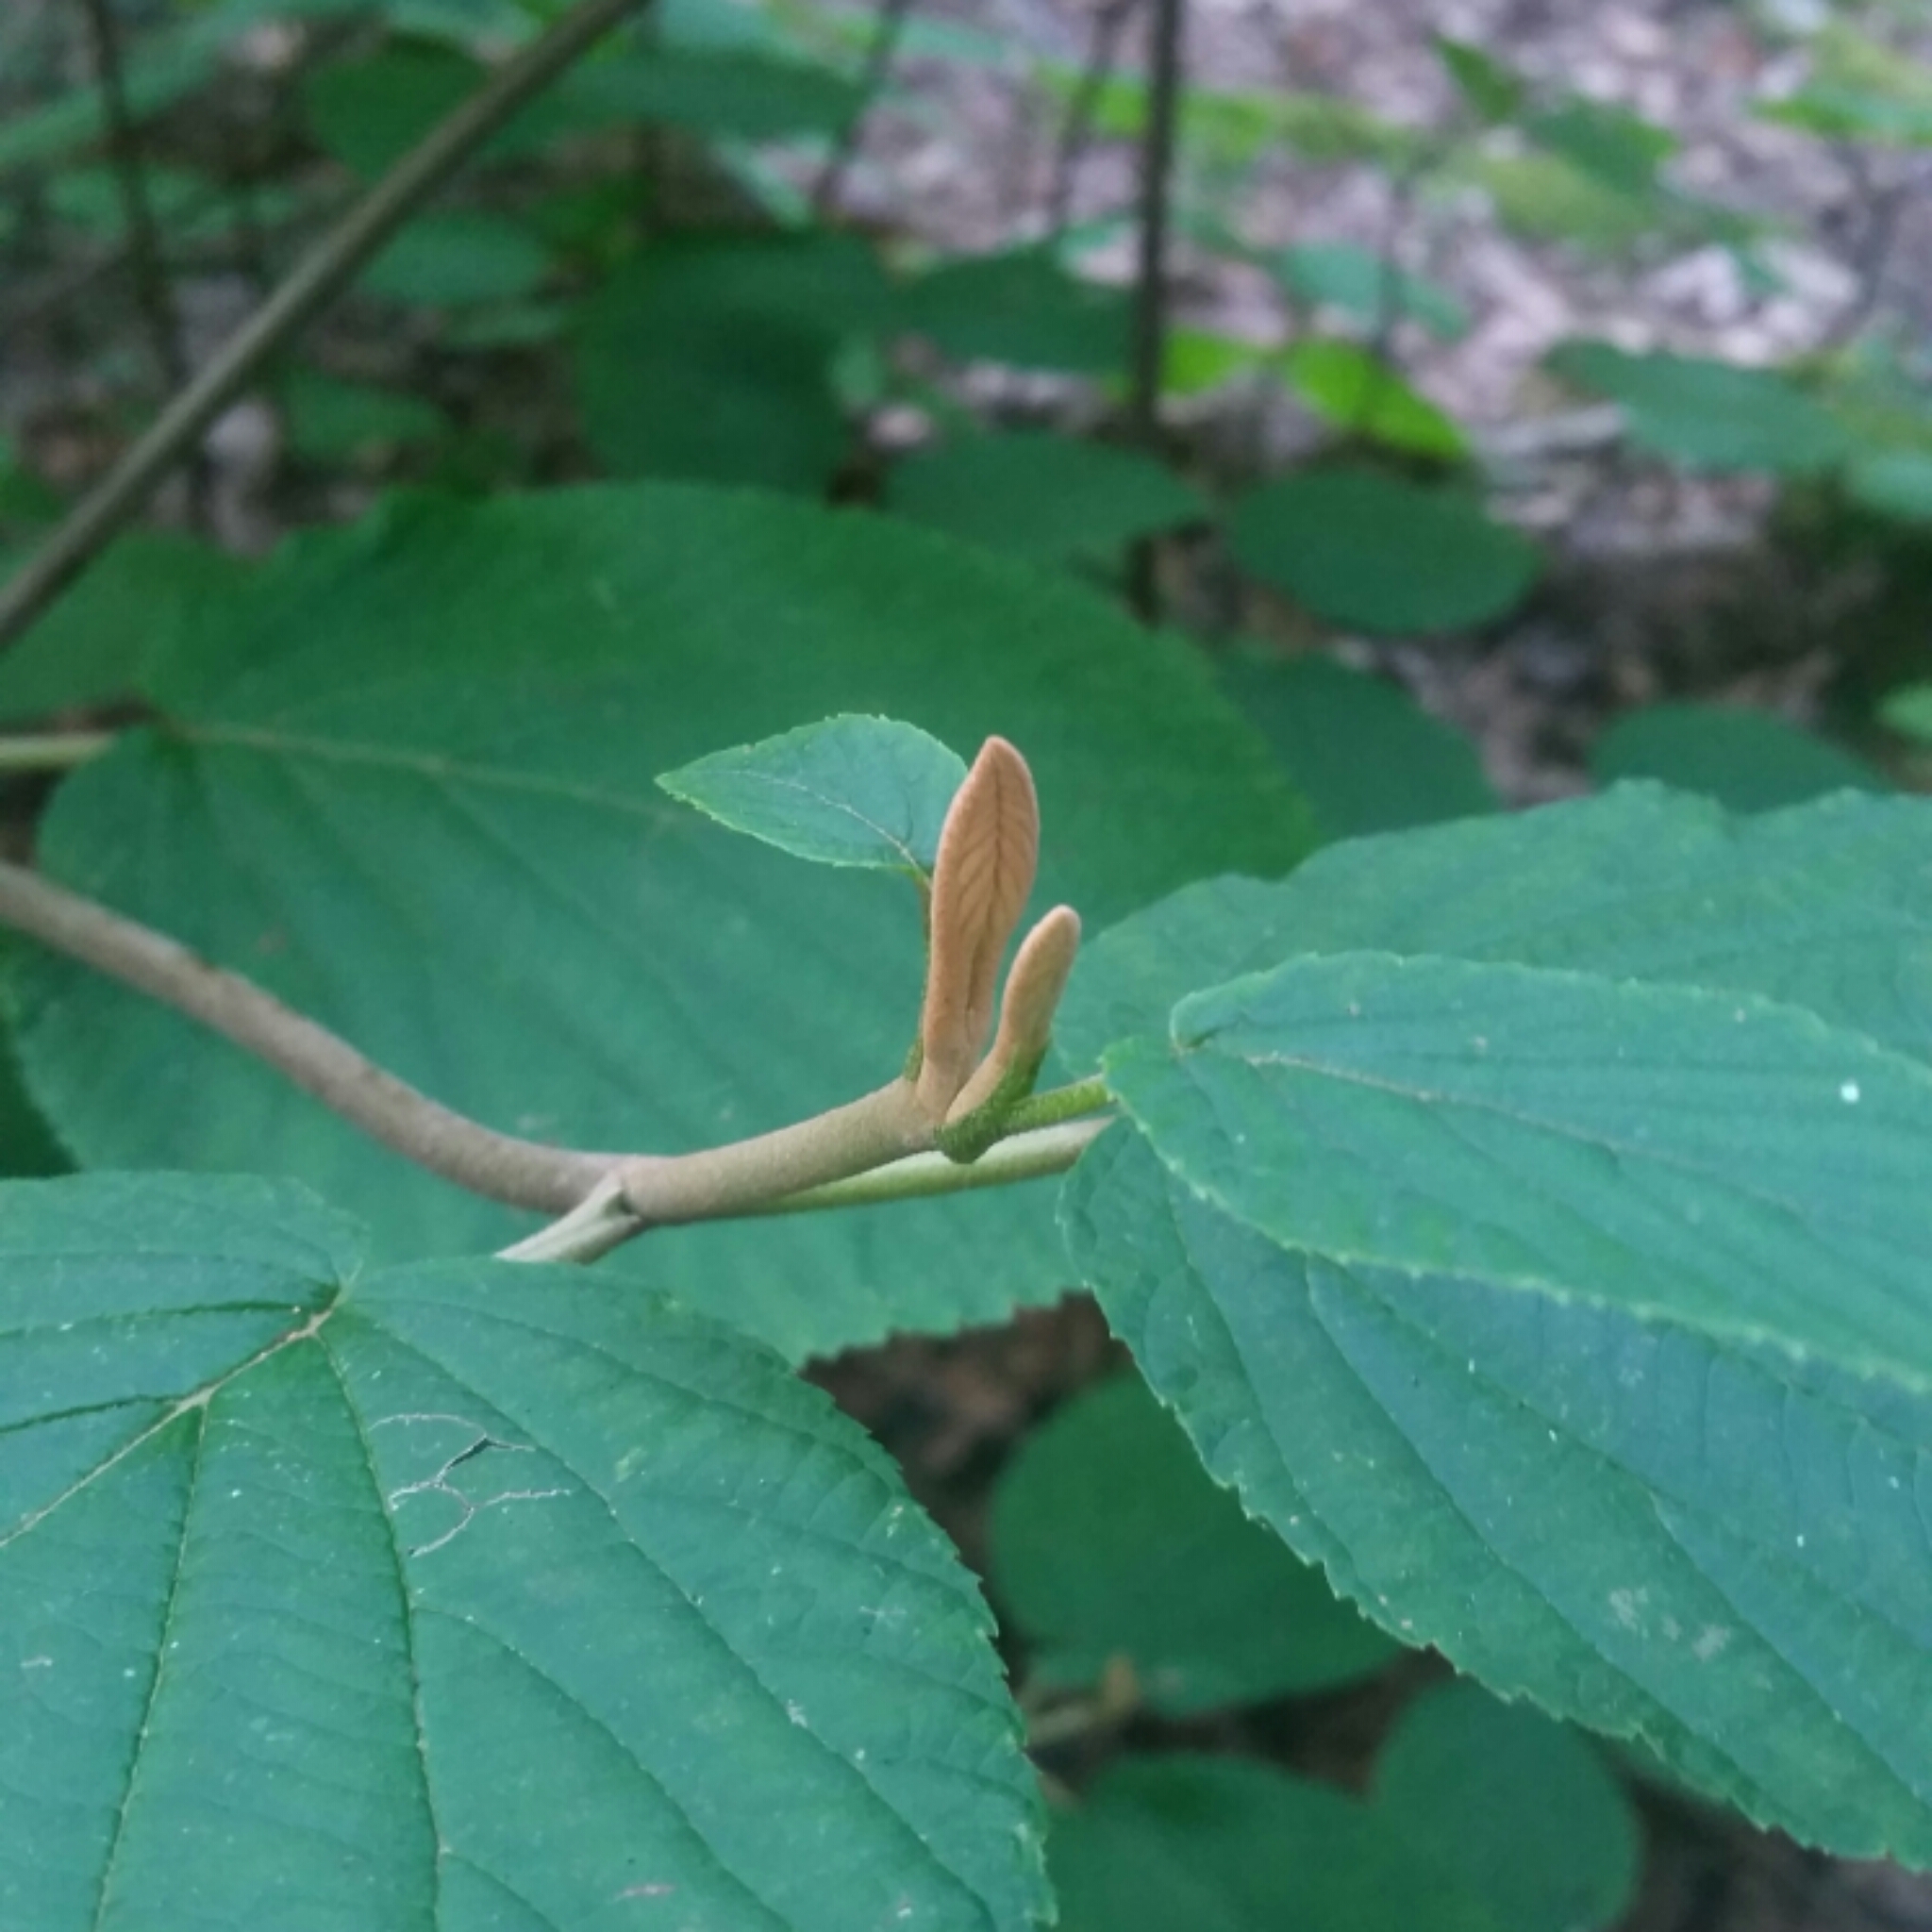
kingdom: Plantae
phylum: Tracheophyta
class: Magnoliopsida
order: Dipsacales
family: Viburnaceae
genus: Viburnum
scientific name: Viburnum lantanoides
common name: Hobblebush
